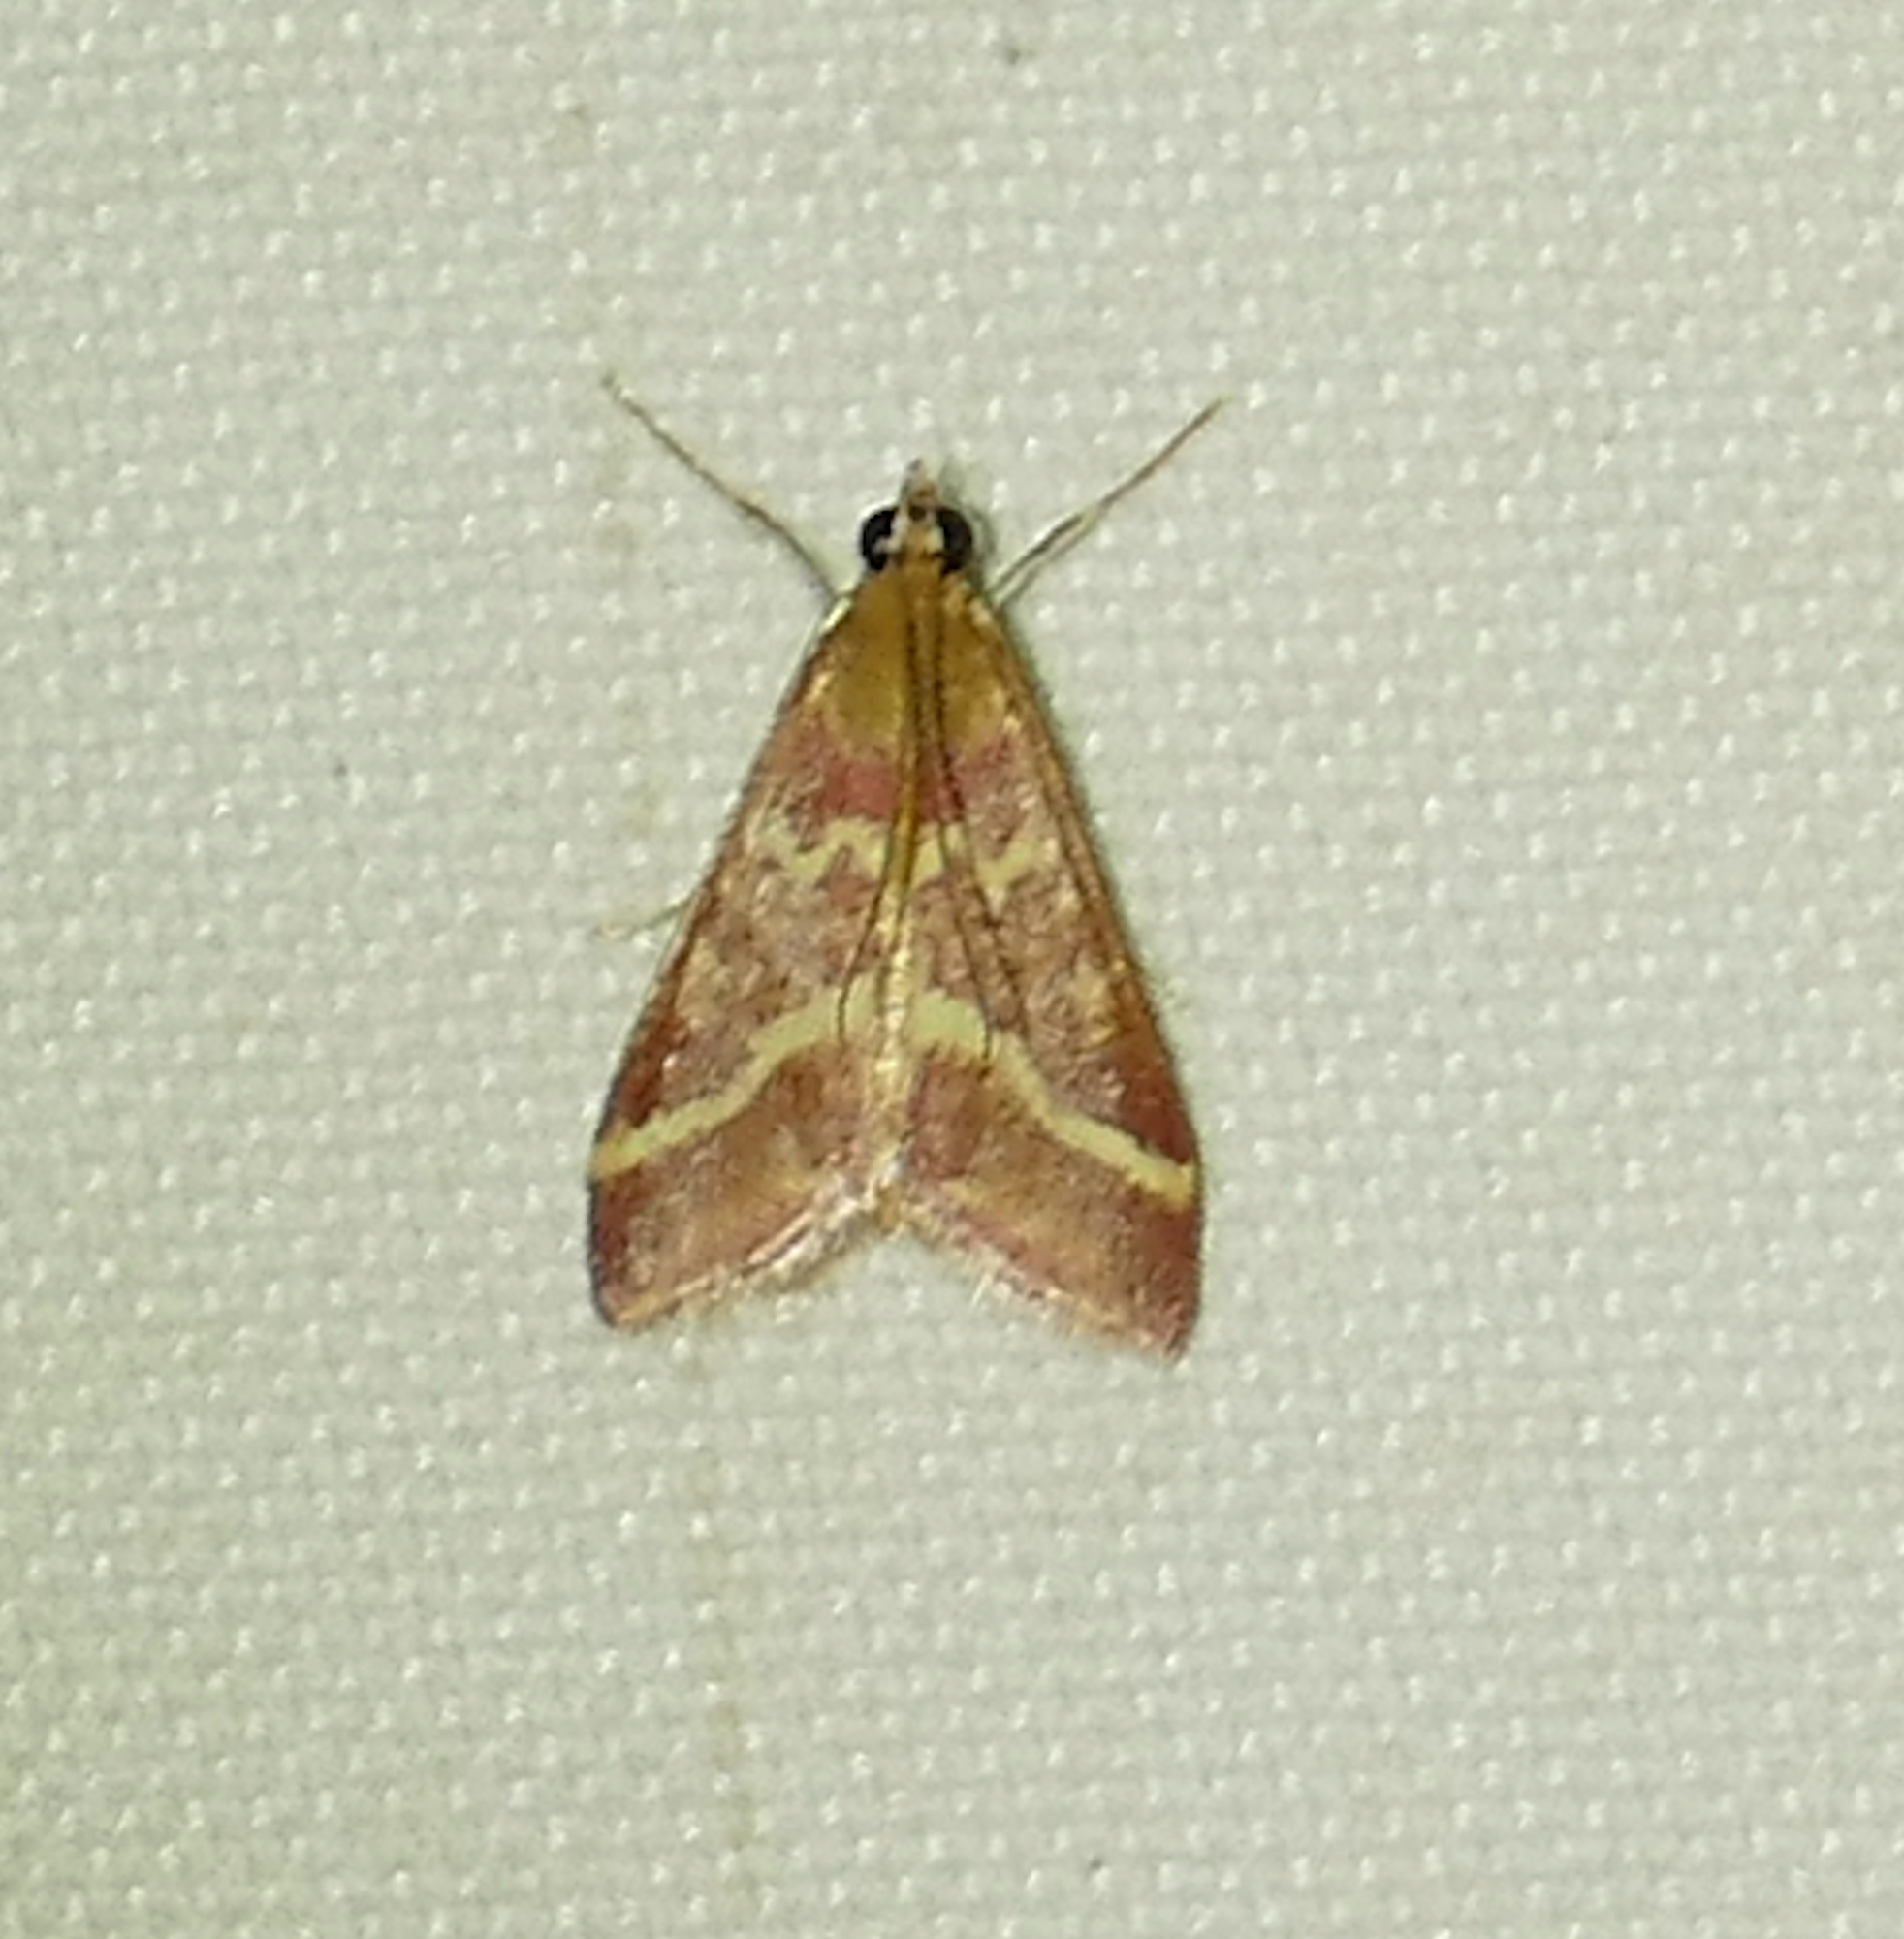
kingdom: Animalia
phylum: Arthropoda
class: Insecta
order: Lepidoptera
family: Crambidae
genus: Pyrausta
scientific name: Pyrausta volupialis
